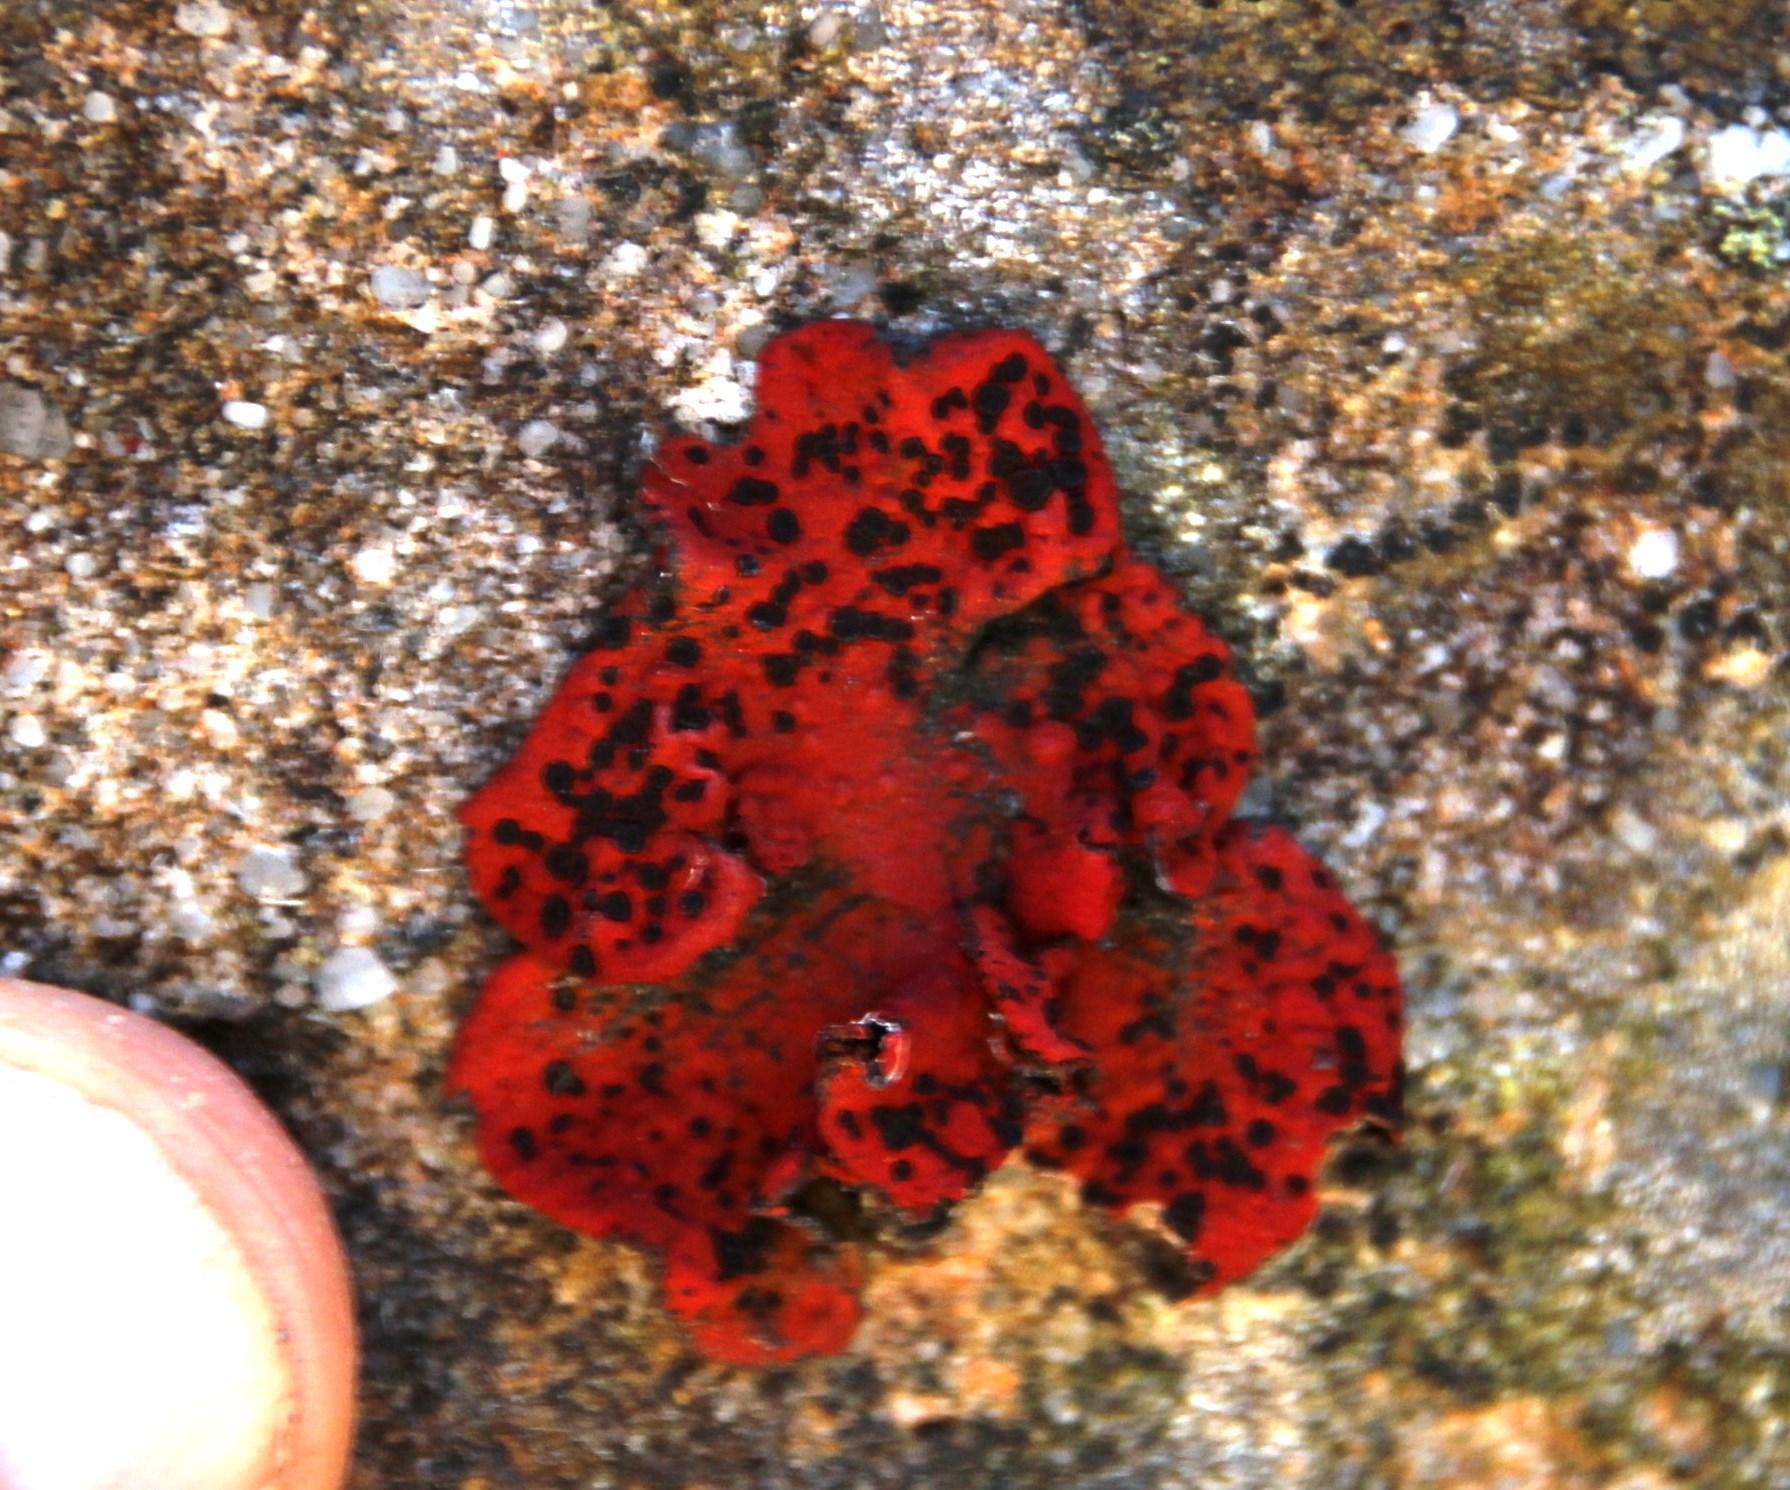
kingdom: Fungi
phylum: Ascomycota
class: Lecanoromycetes
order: Umbilicariales
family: Umbilicariaceae
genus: Lasallia
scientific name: Lasallia rubiginosa
